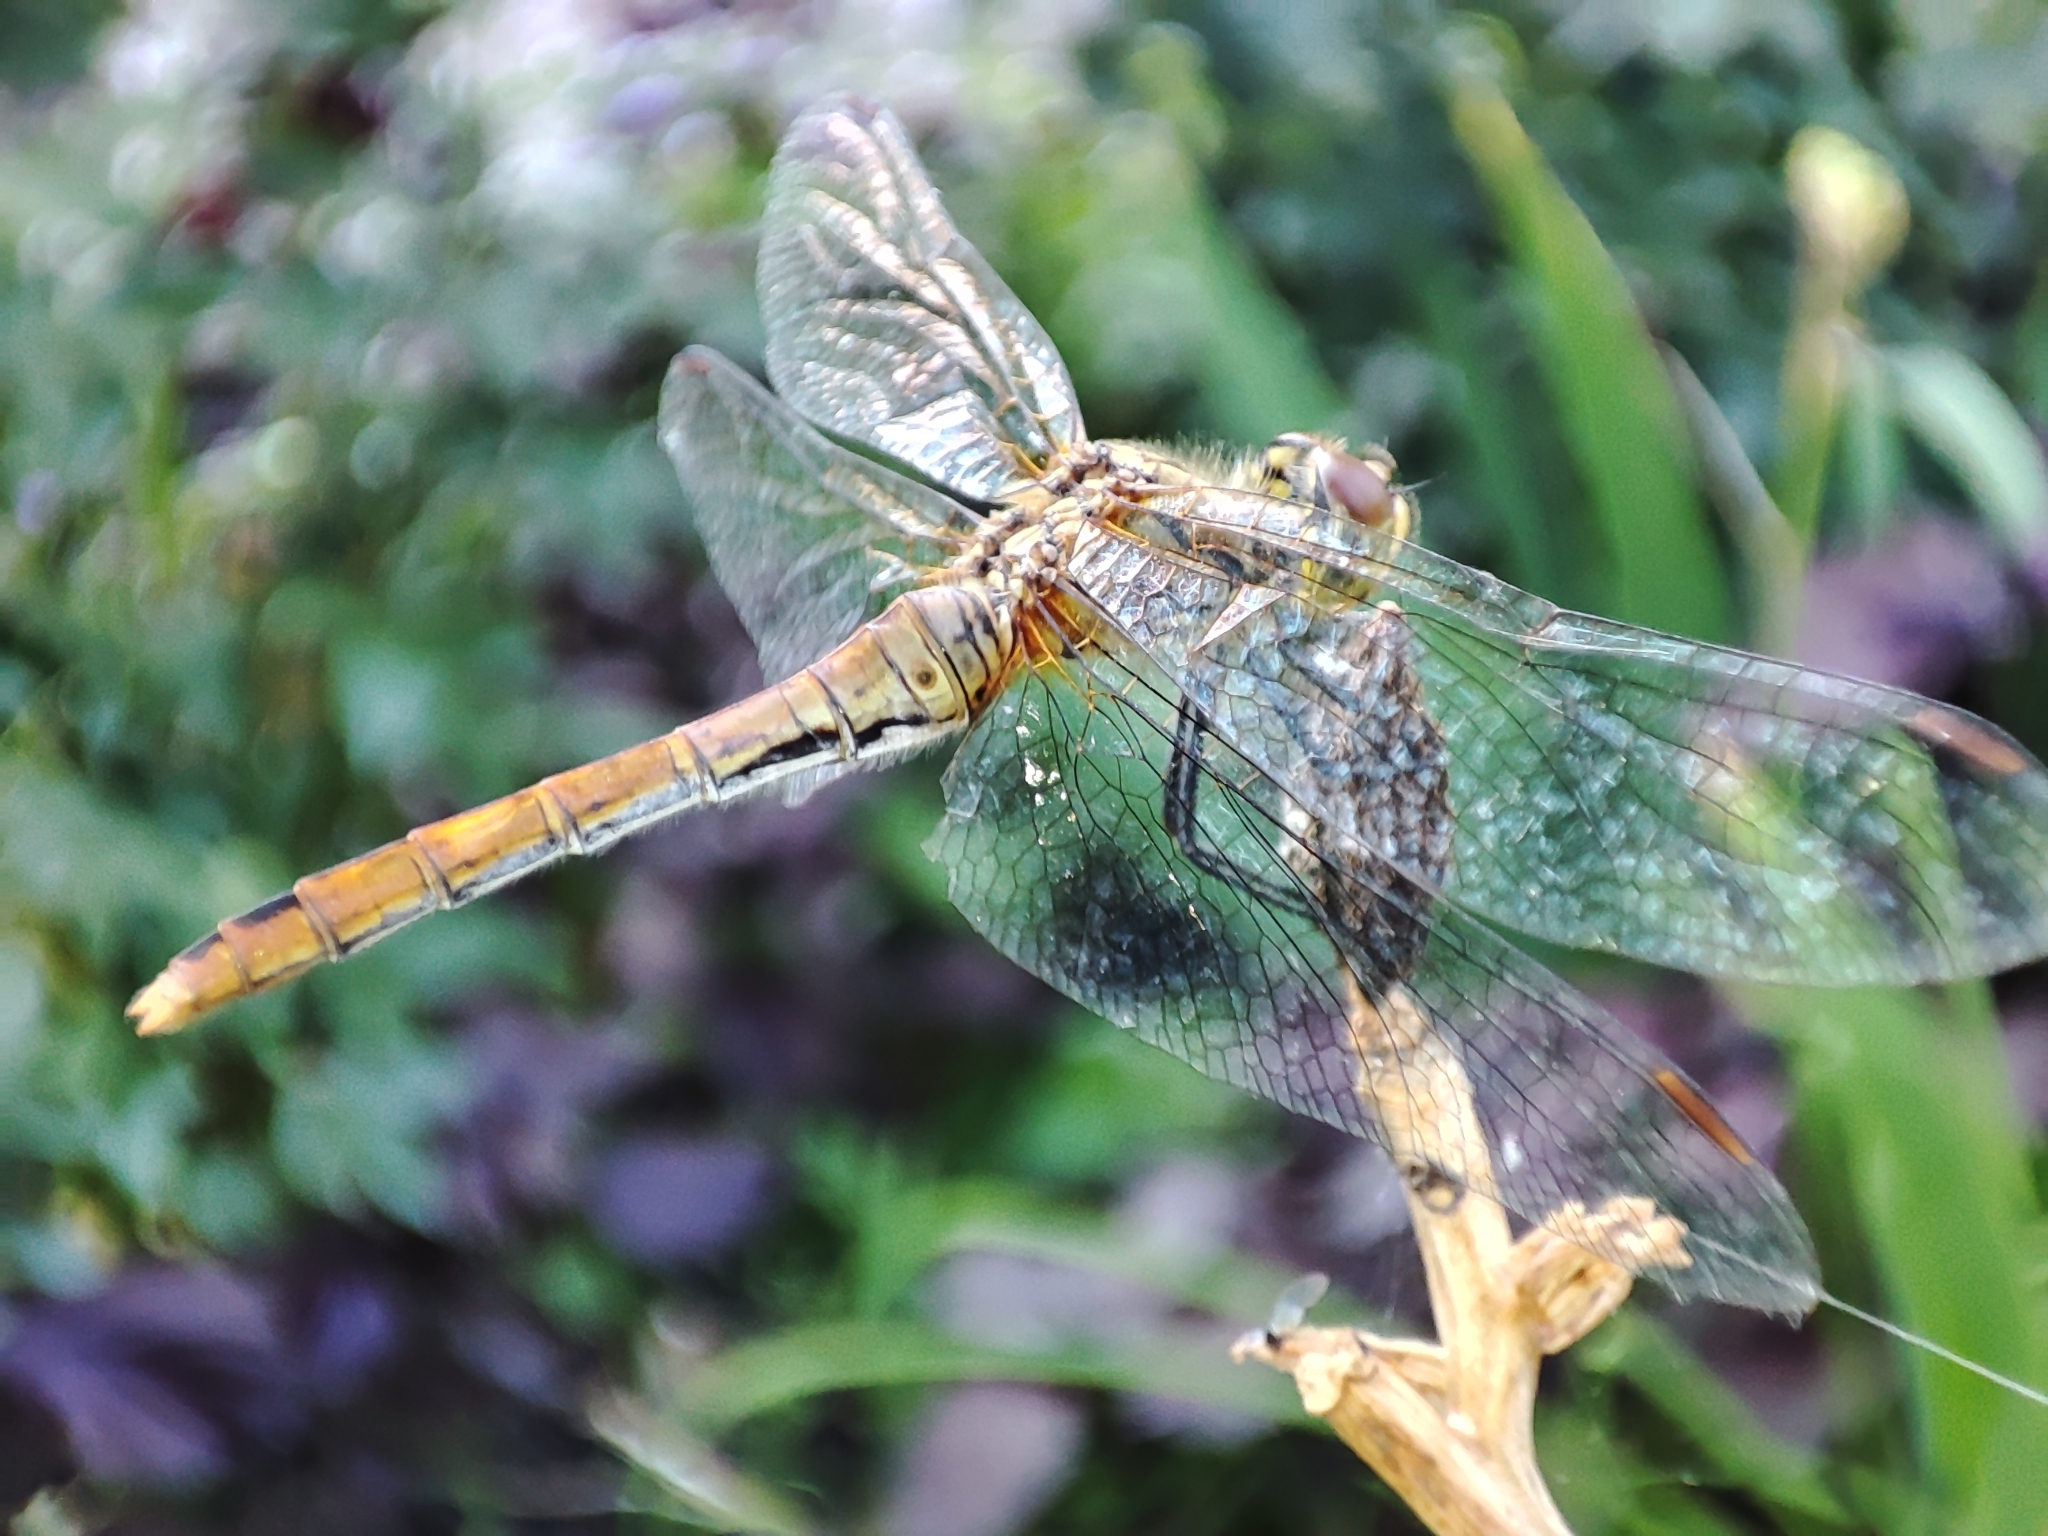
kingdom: Animalia
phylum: Arthropoda
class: Insecta
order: Odonata
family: Libellulidae
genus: Sympetrum
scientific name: Sympetrum sanguineum
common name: Ruddy darter
